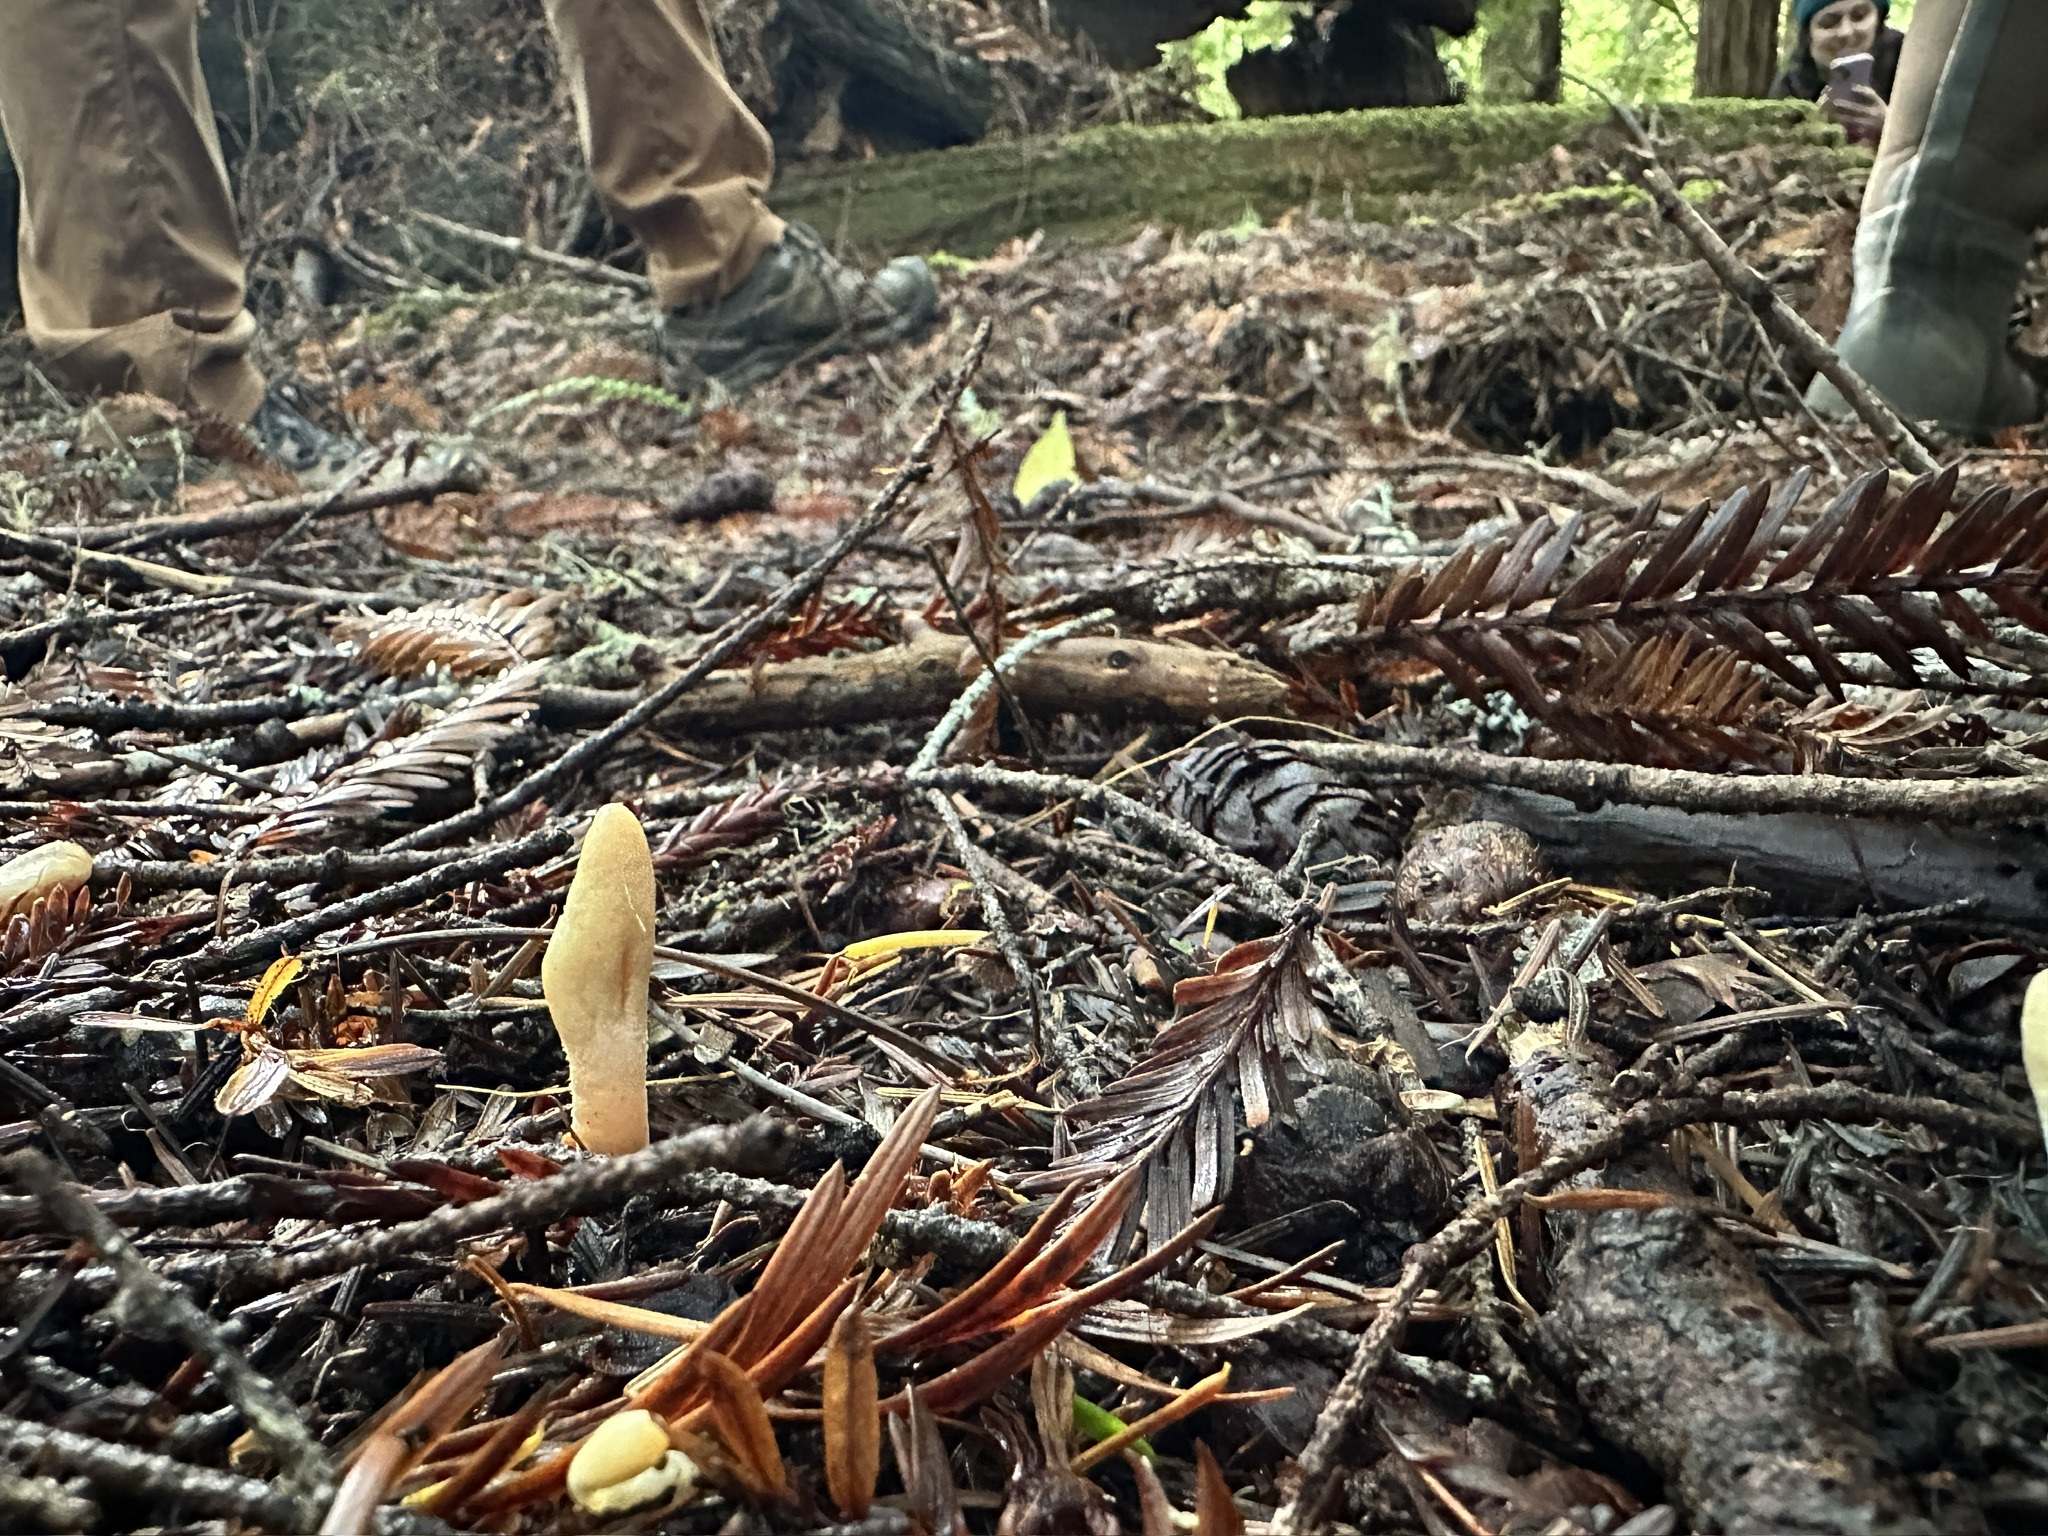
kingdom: Fungi
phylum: Ascomycota
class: Sordariomycetes
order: Hypocreales
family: Hypocreaceae
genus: Trichoderma
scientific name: Trichoderma leucopus
